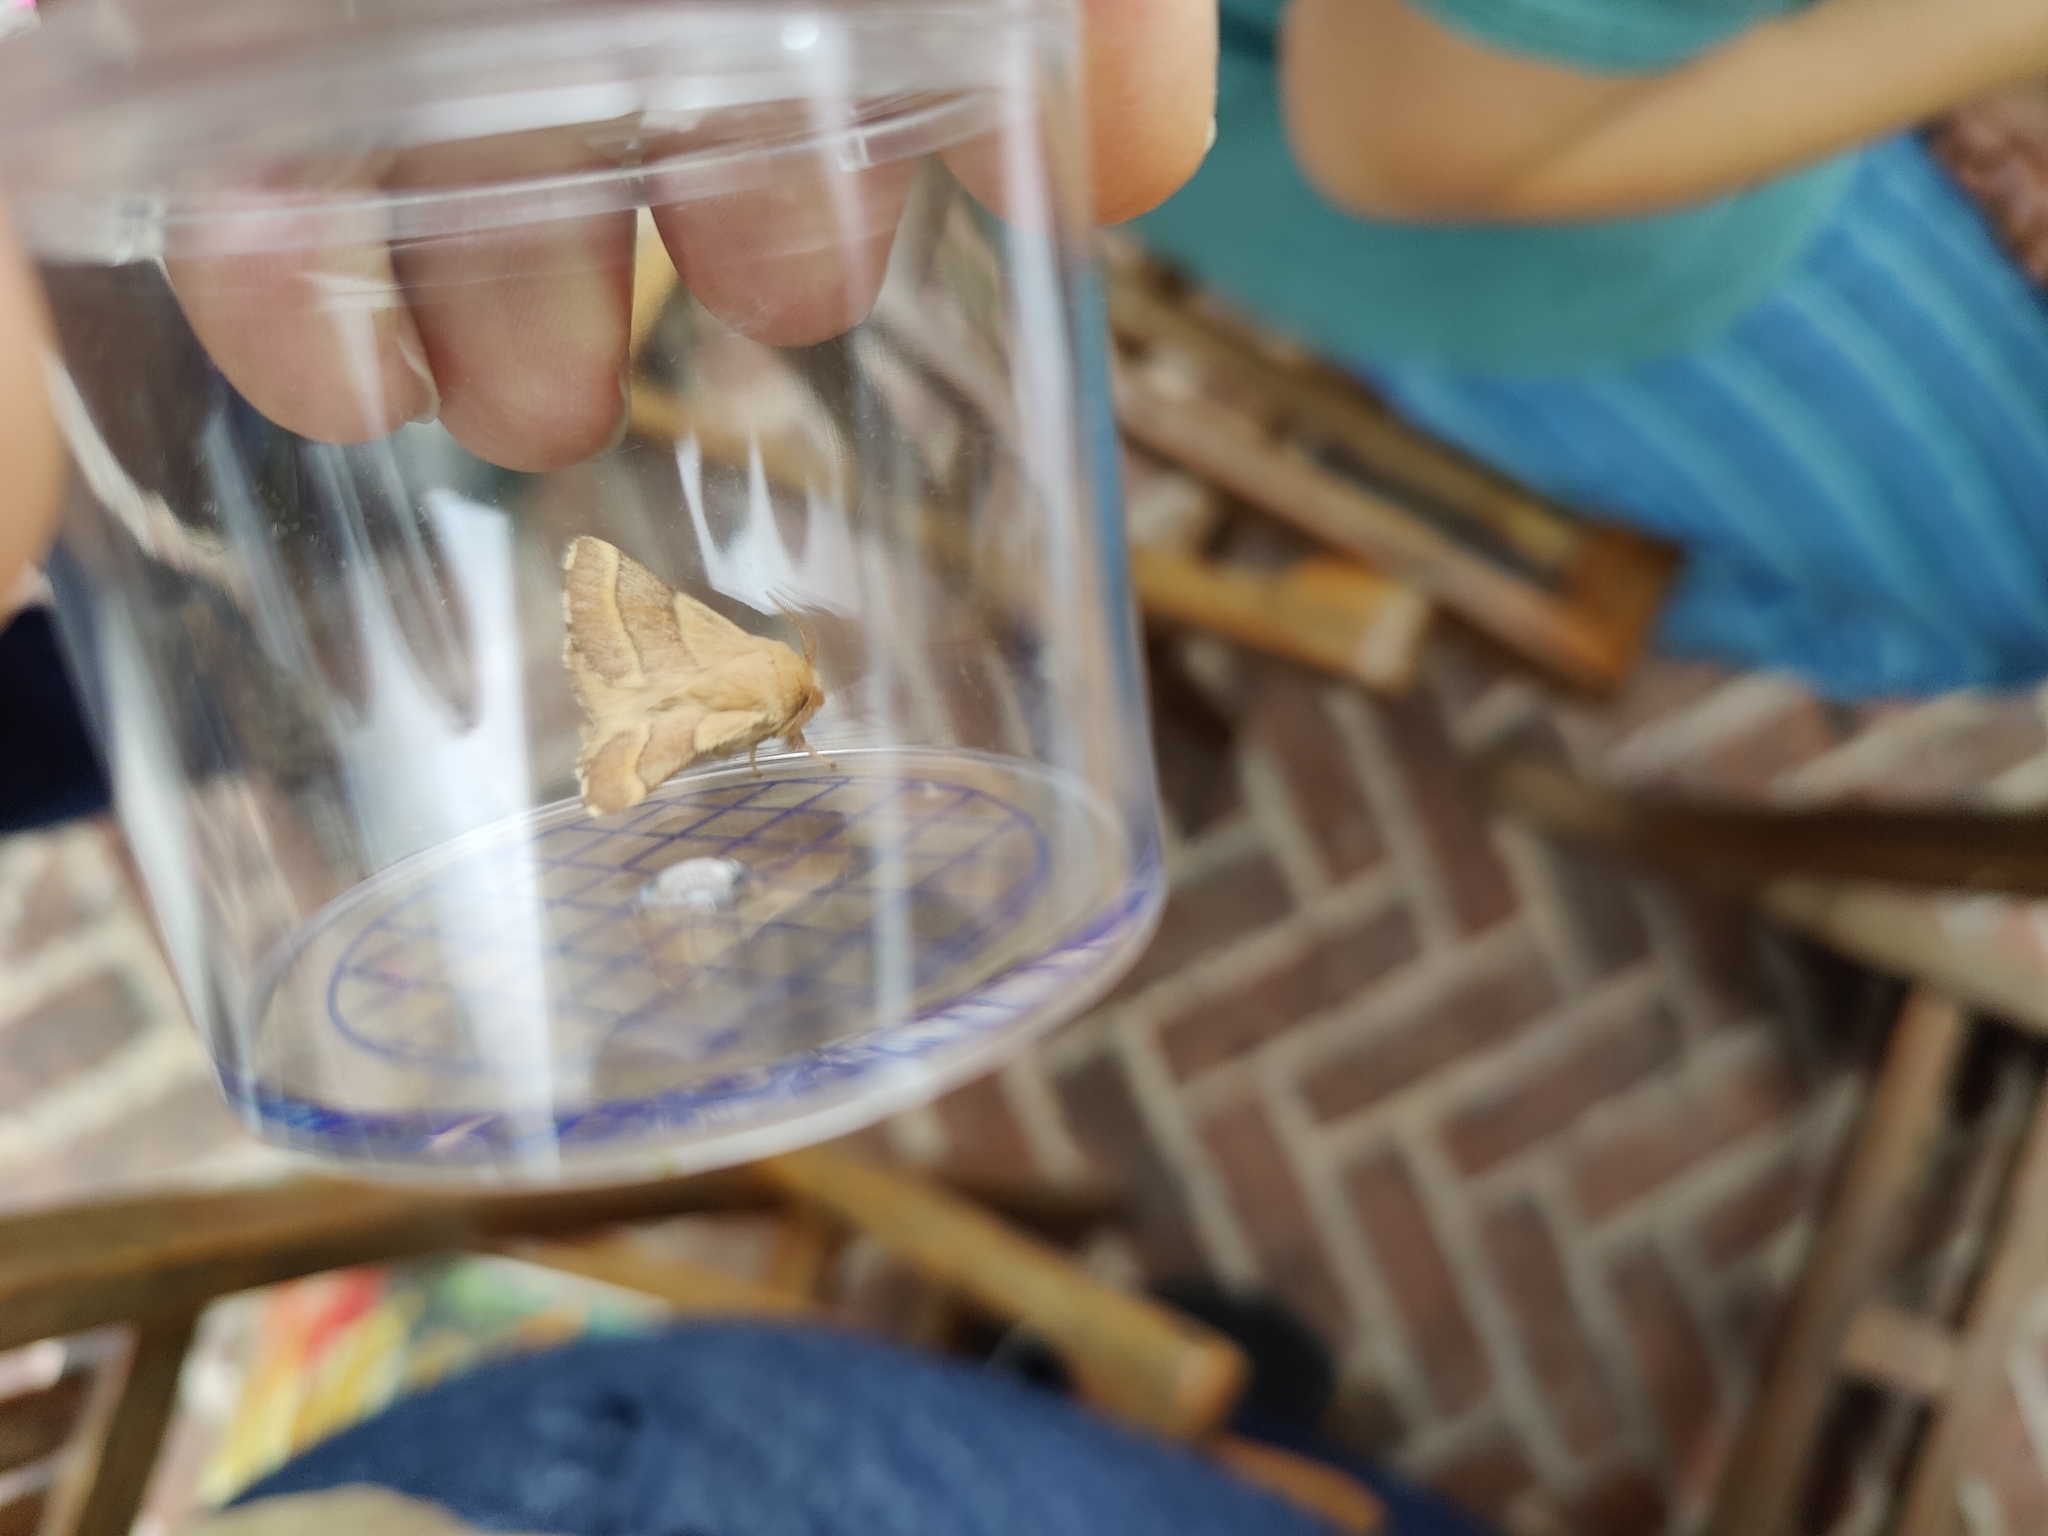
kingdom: Animalia
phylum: Arthropoda
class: Insecta
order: Lepidoptera
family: Lasiocampidae
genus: Malacosoma
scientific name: Malacosoma neustria
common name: The lackey
